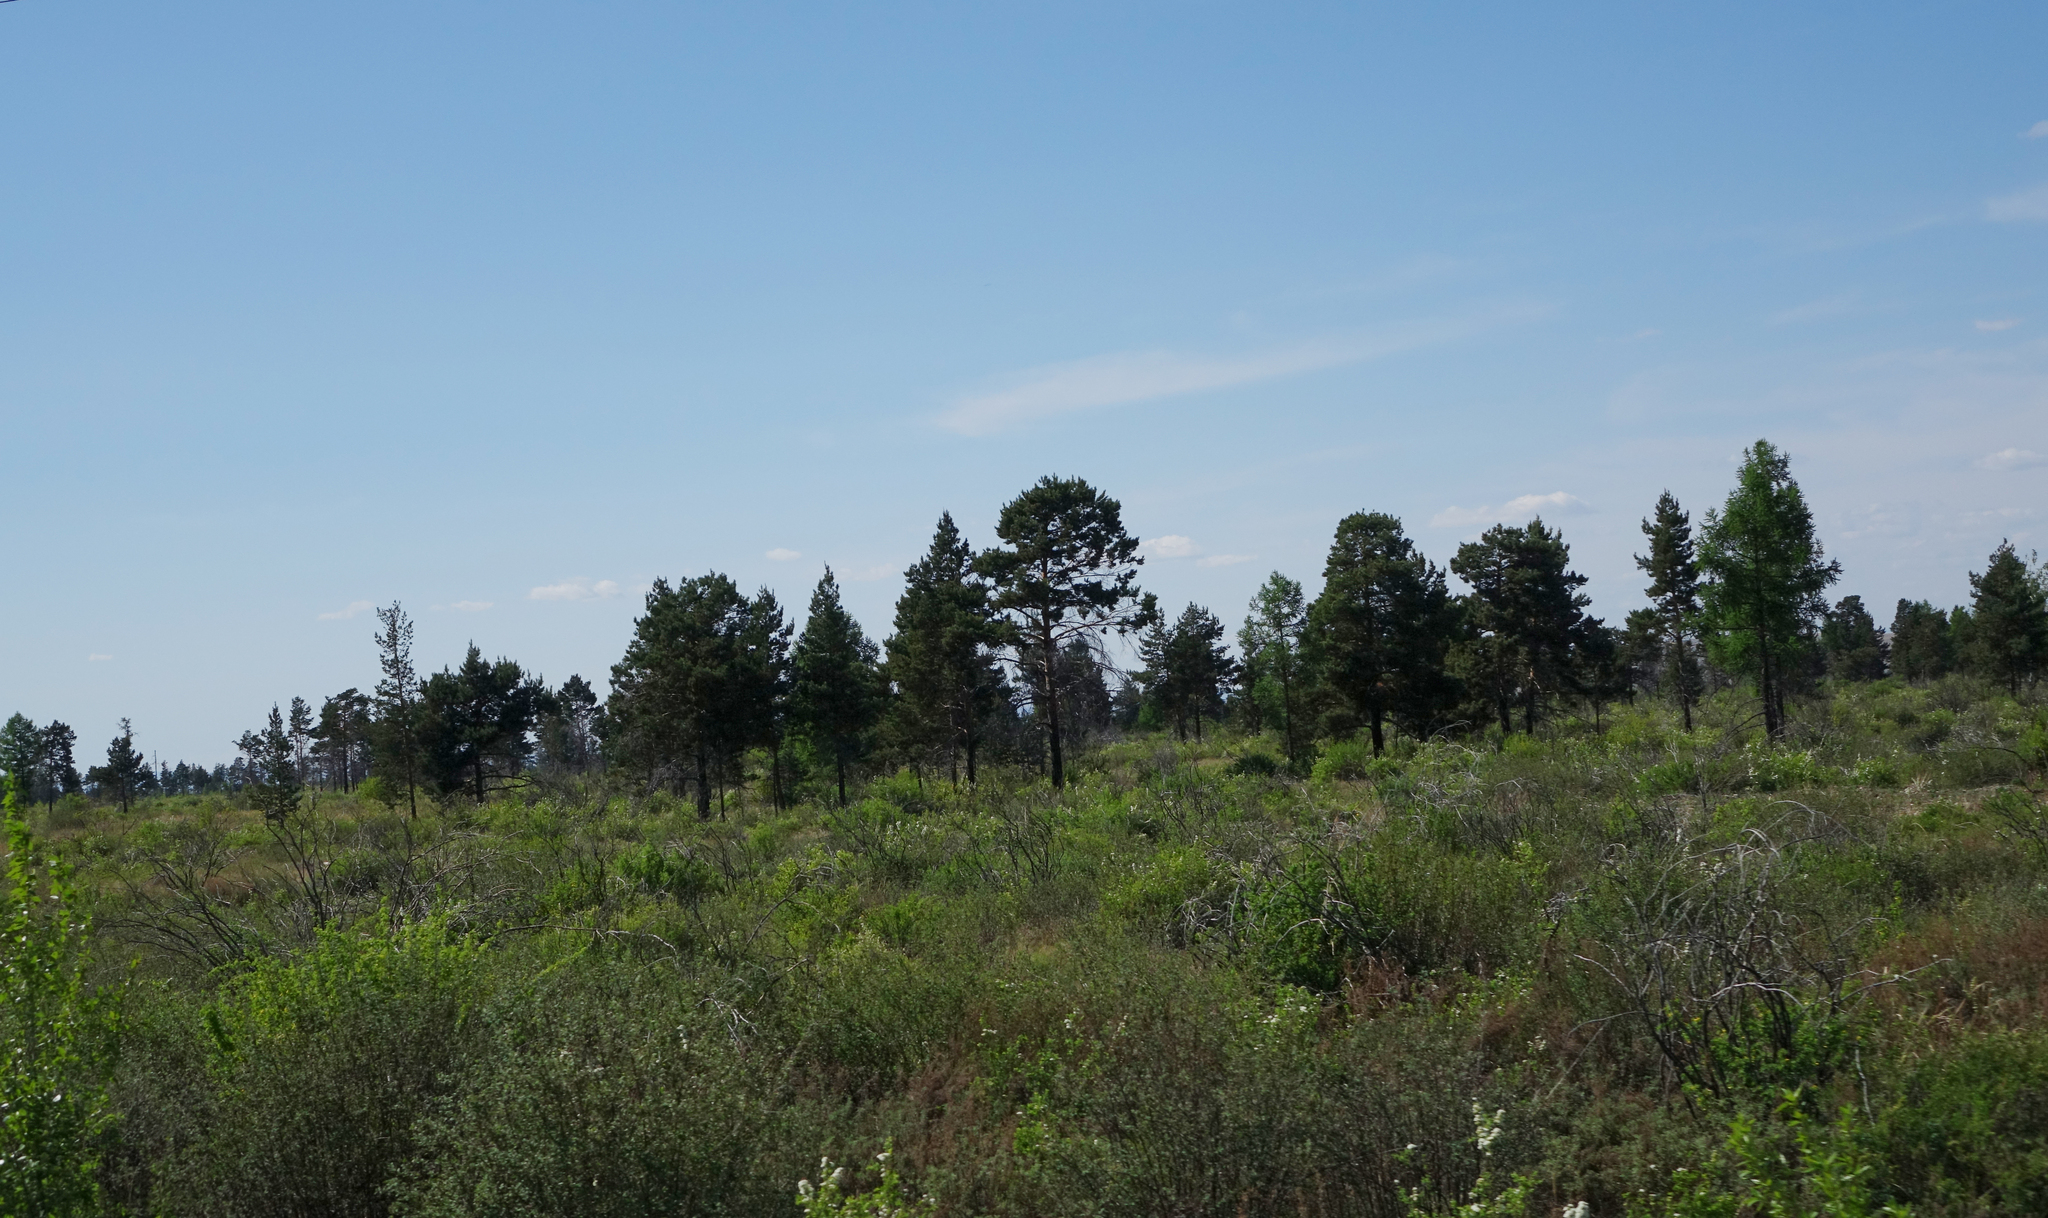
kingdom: Plantae
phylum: Tracheophyta
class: Pinopsida
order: Pinales
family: Pinaceae
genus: Pinus
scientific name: Pinus sylvestris
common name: Scots pine
